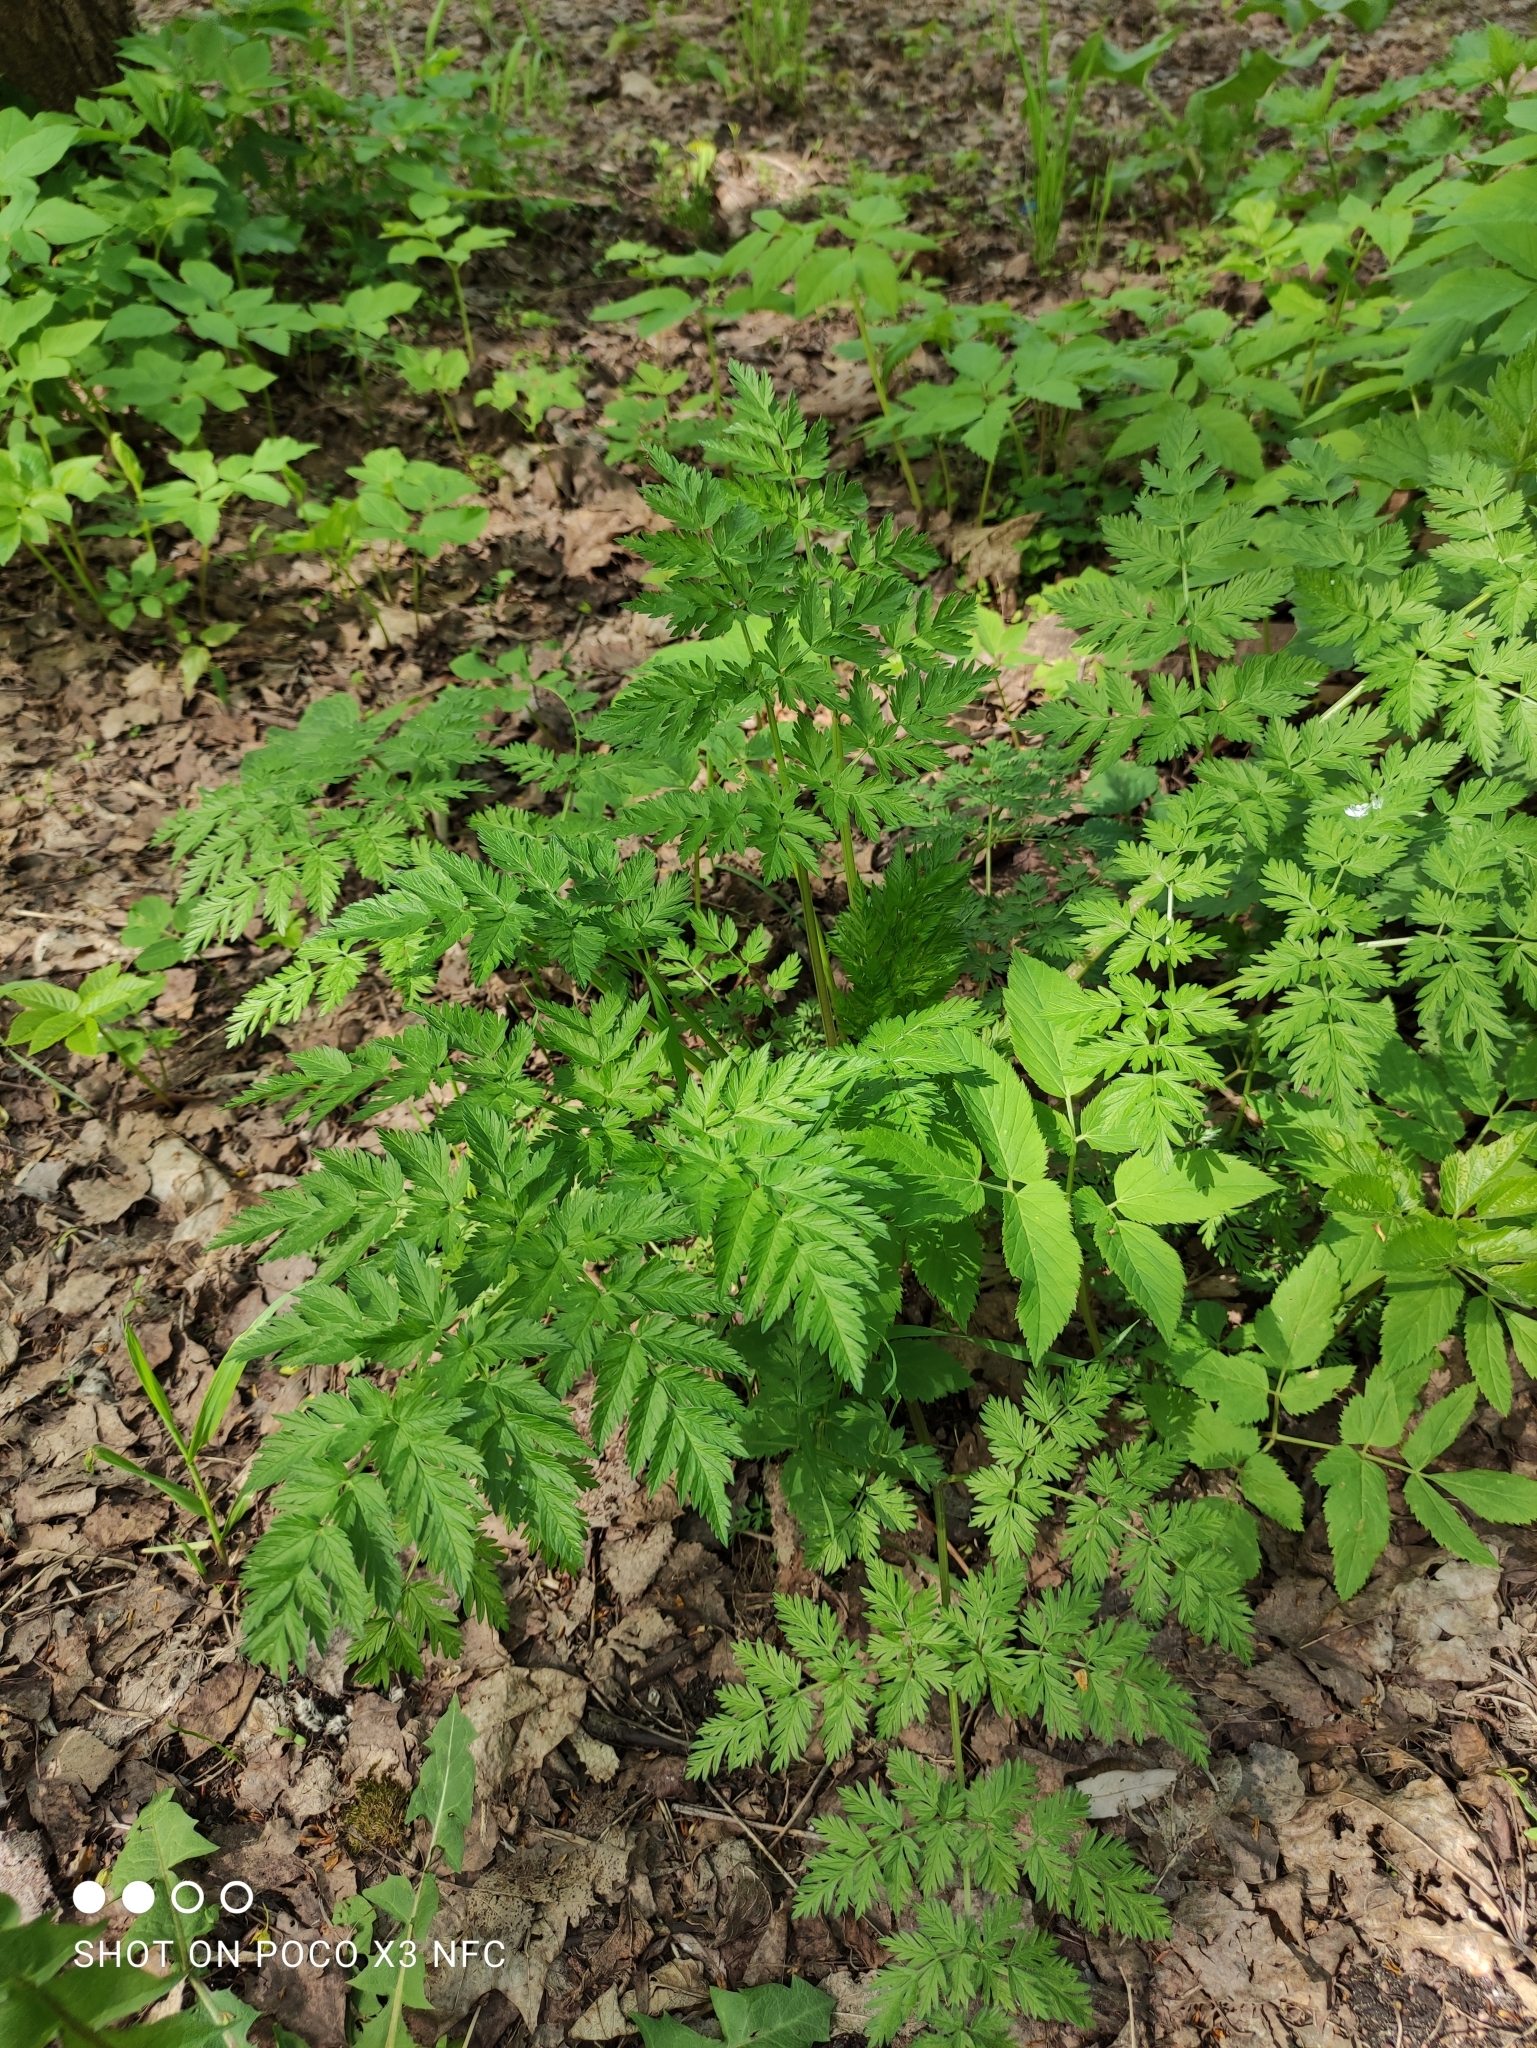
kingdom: Plantae
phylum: Tracheophyta
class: Magnoliopsida
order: Apiales
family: Apiaceae
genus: Anthriscus
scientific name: Anthriscus sylvestris
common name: Cow parsley
